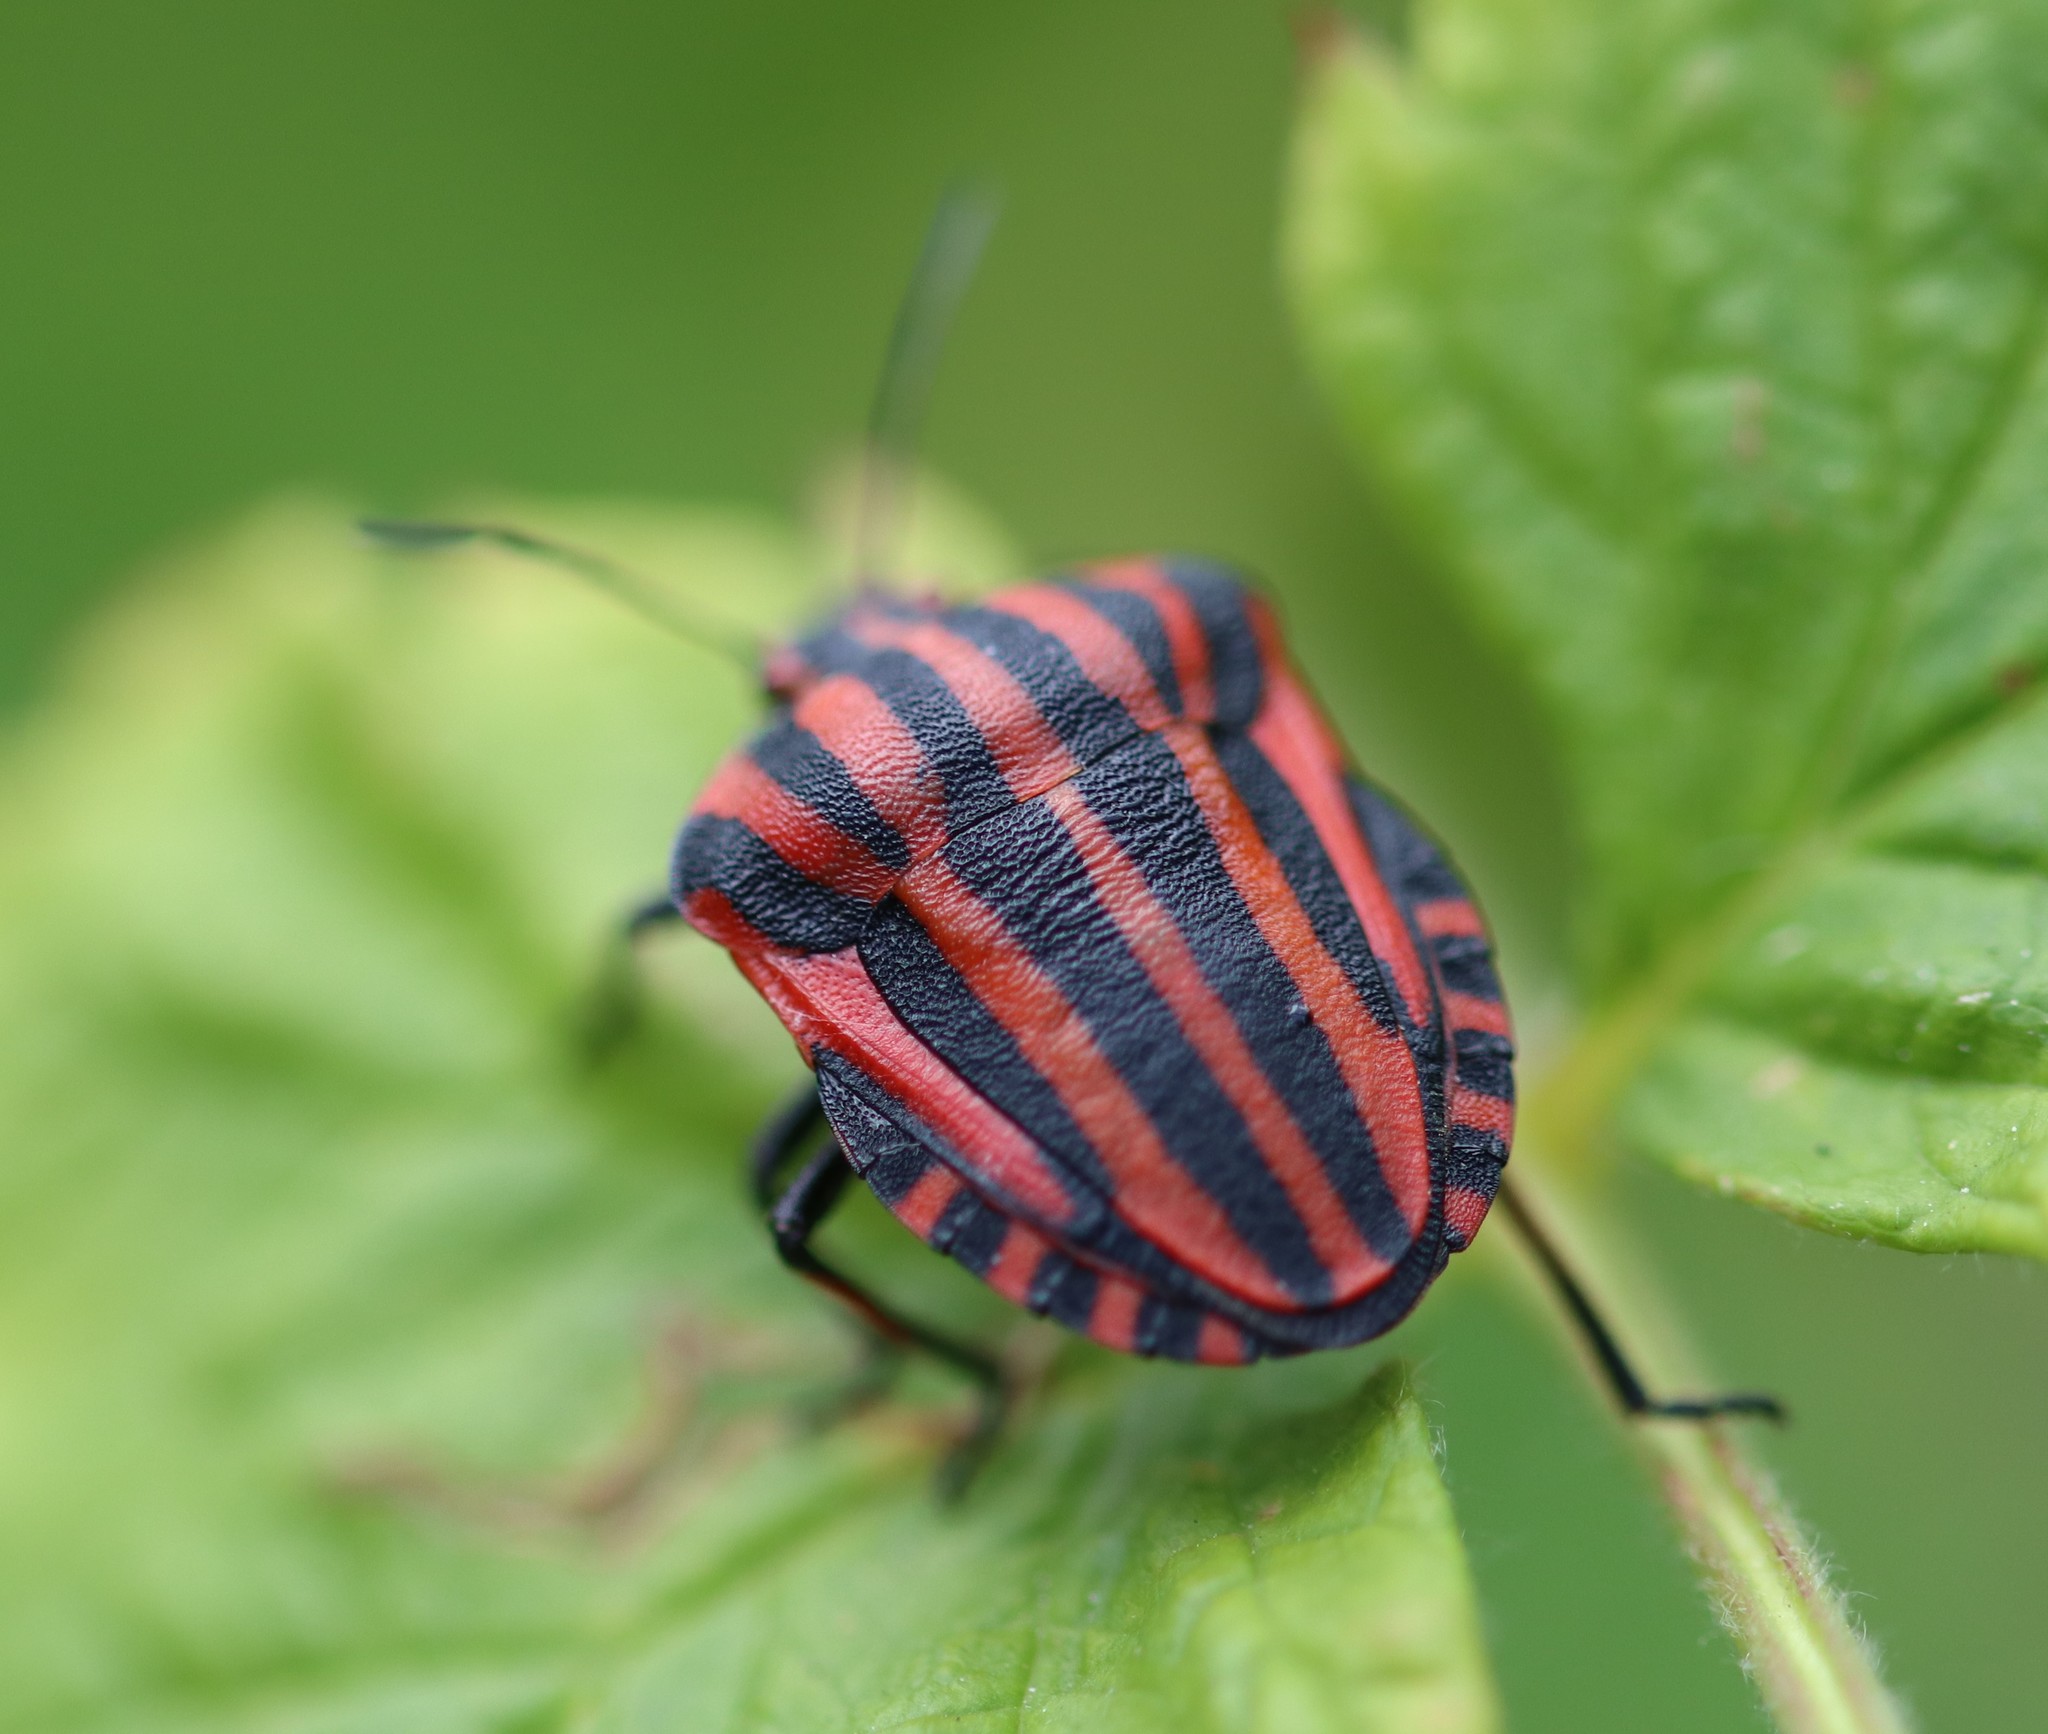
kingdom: Animalia
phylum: Arthropoda
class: Insecta
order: Hemiptera
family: Pentatomidae
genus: Graphosoma
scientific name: Graphosoma italicum
